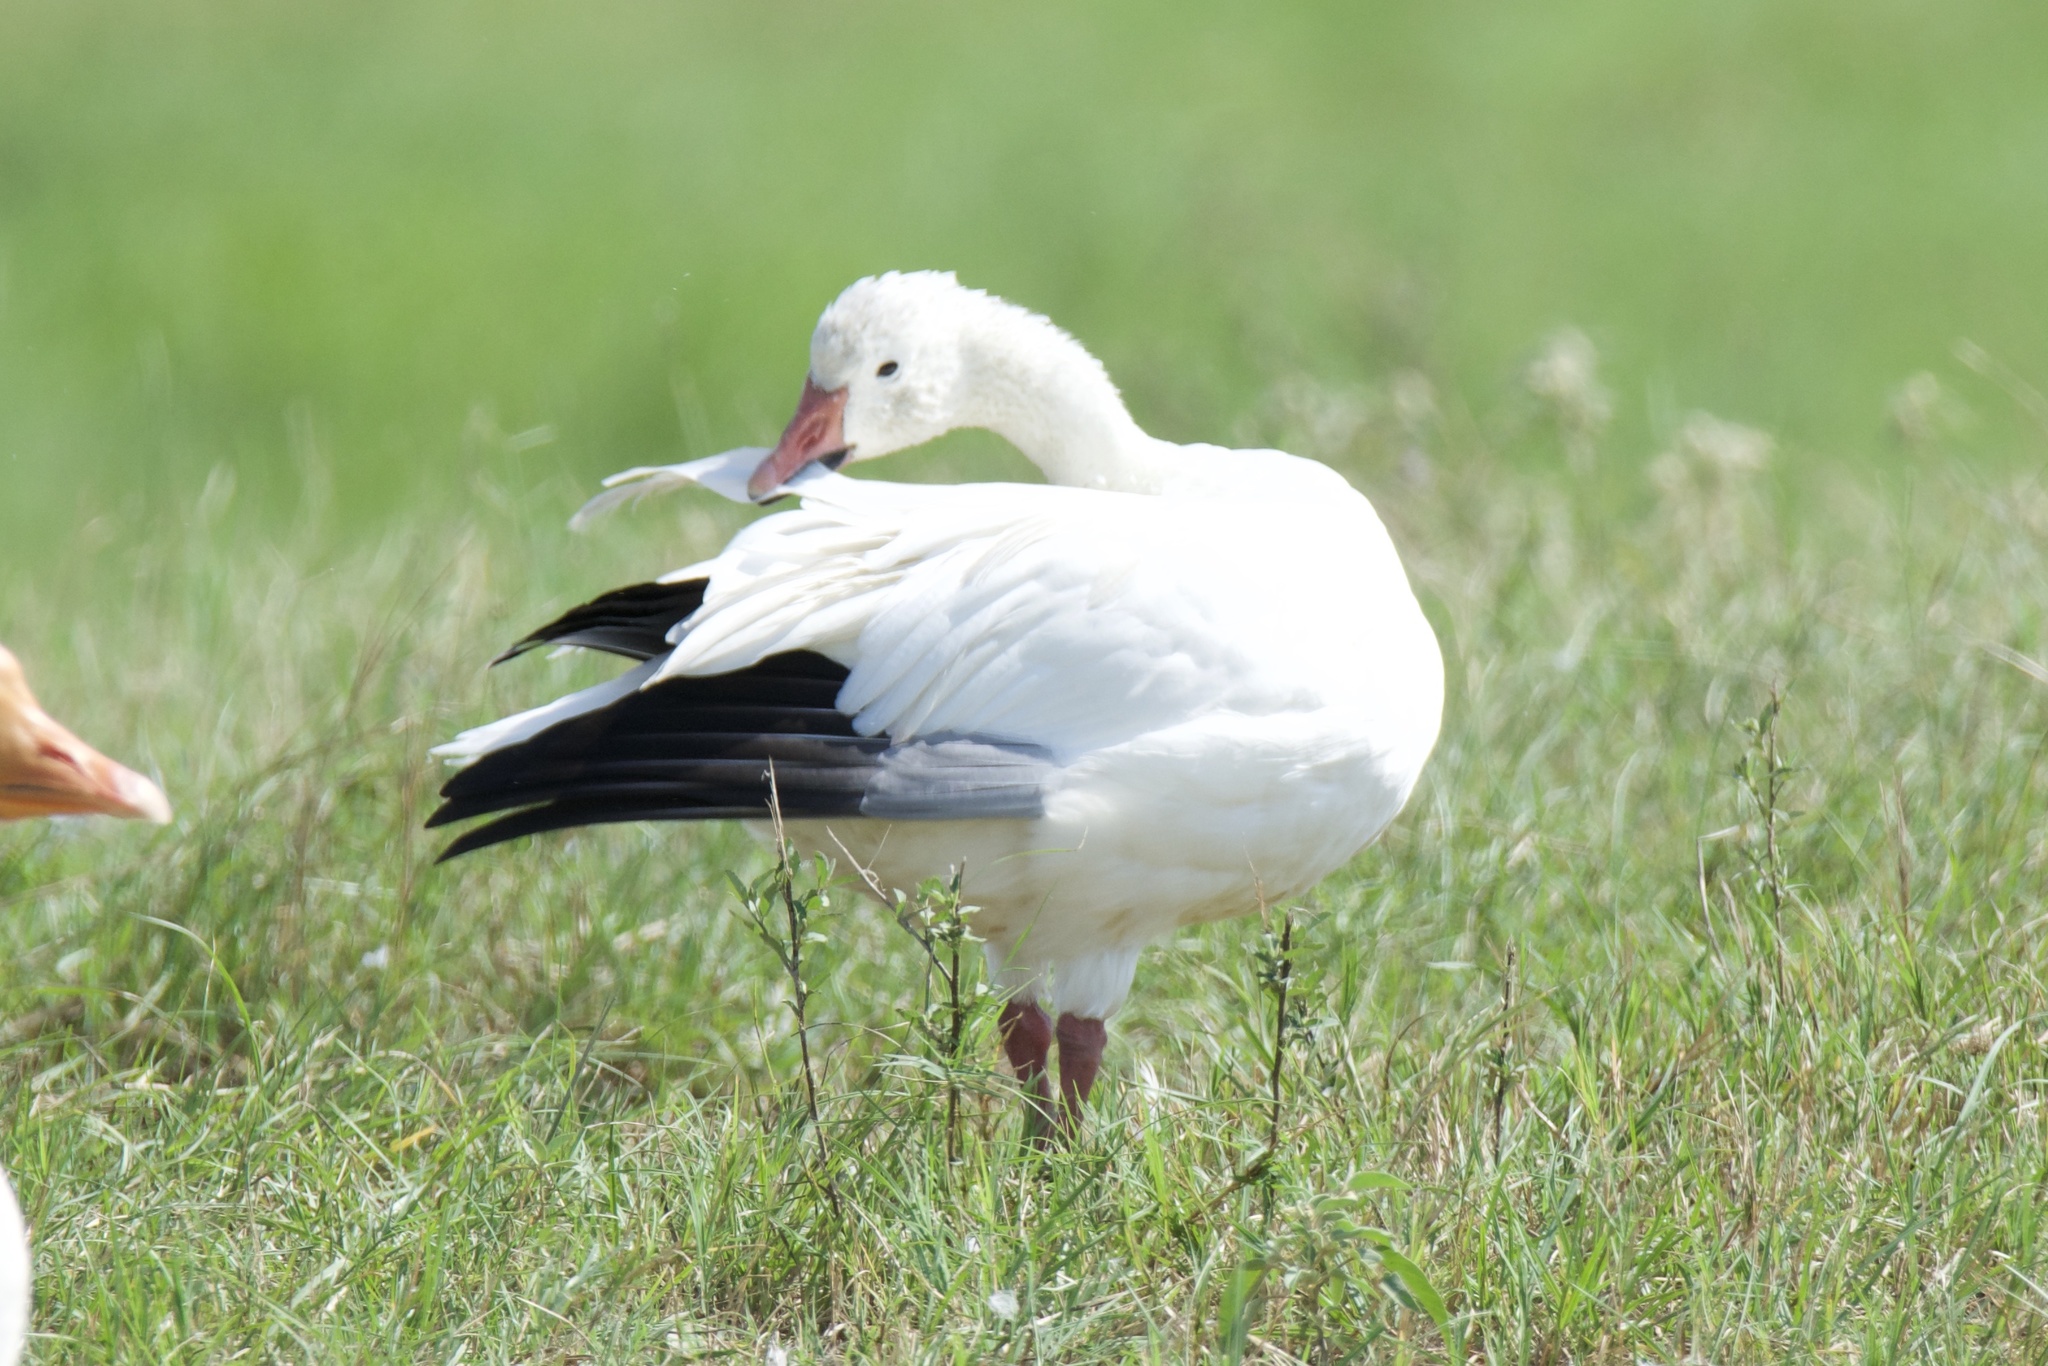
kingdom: Animalia
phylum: Chordata
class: Aves
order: Anseriformes
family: Anatidae
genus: Anser
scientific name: Anser caerulescens
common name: Snow goose
